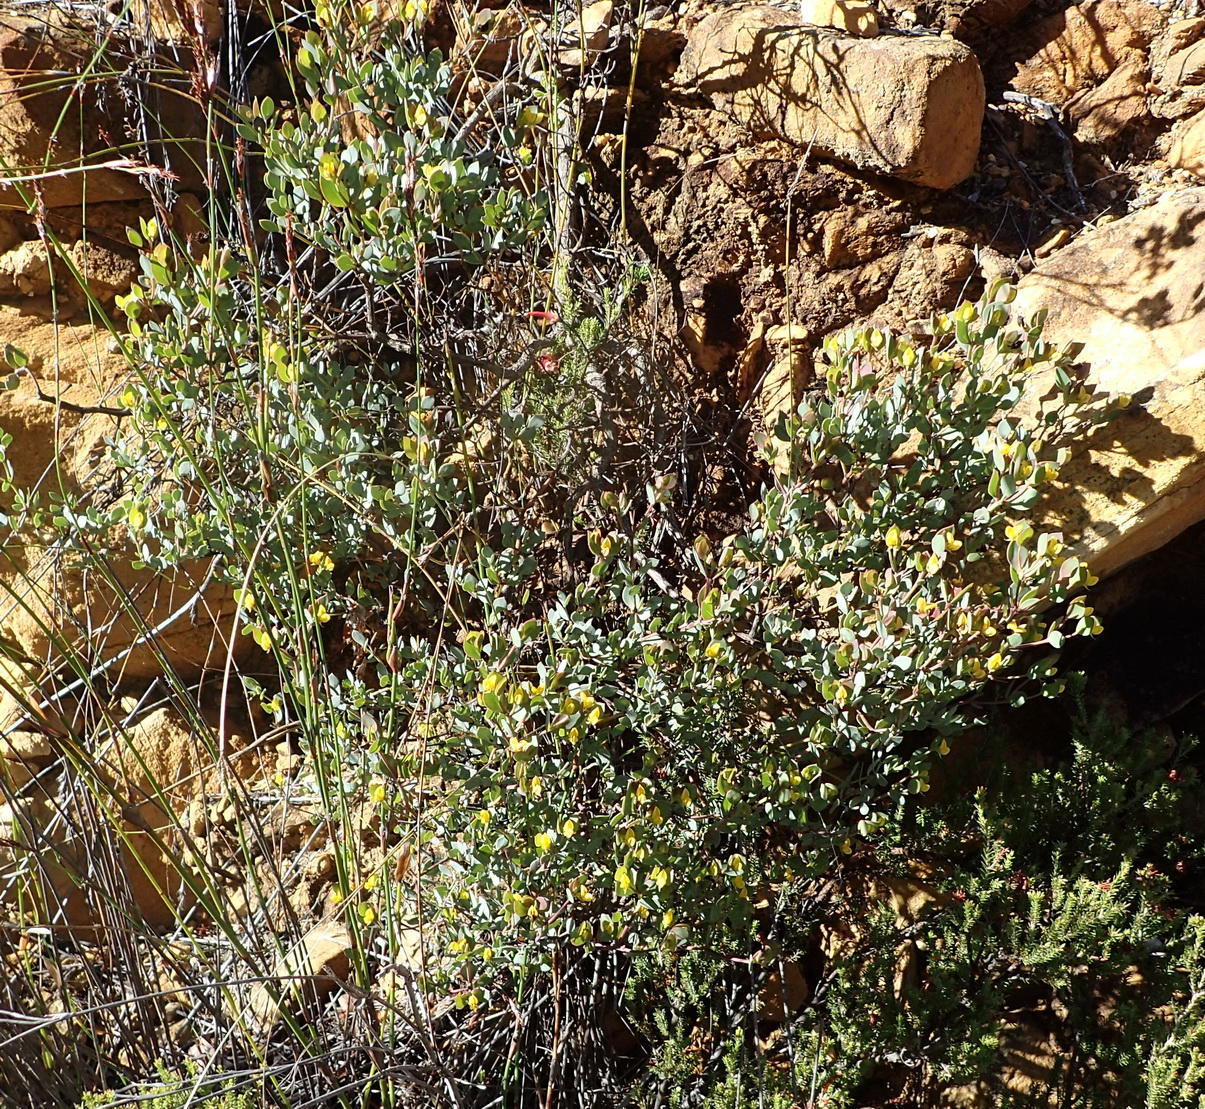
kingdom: Plantae
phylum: Tracheophyta
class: Magnoliopsida
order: Fabales
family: Fabaceae
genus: Rafnia
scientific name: Rafnia capensis
